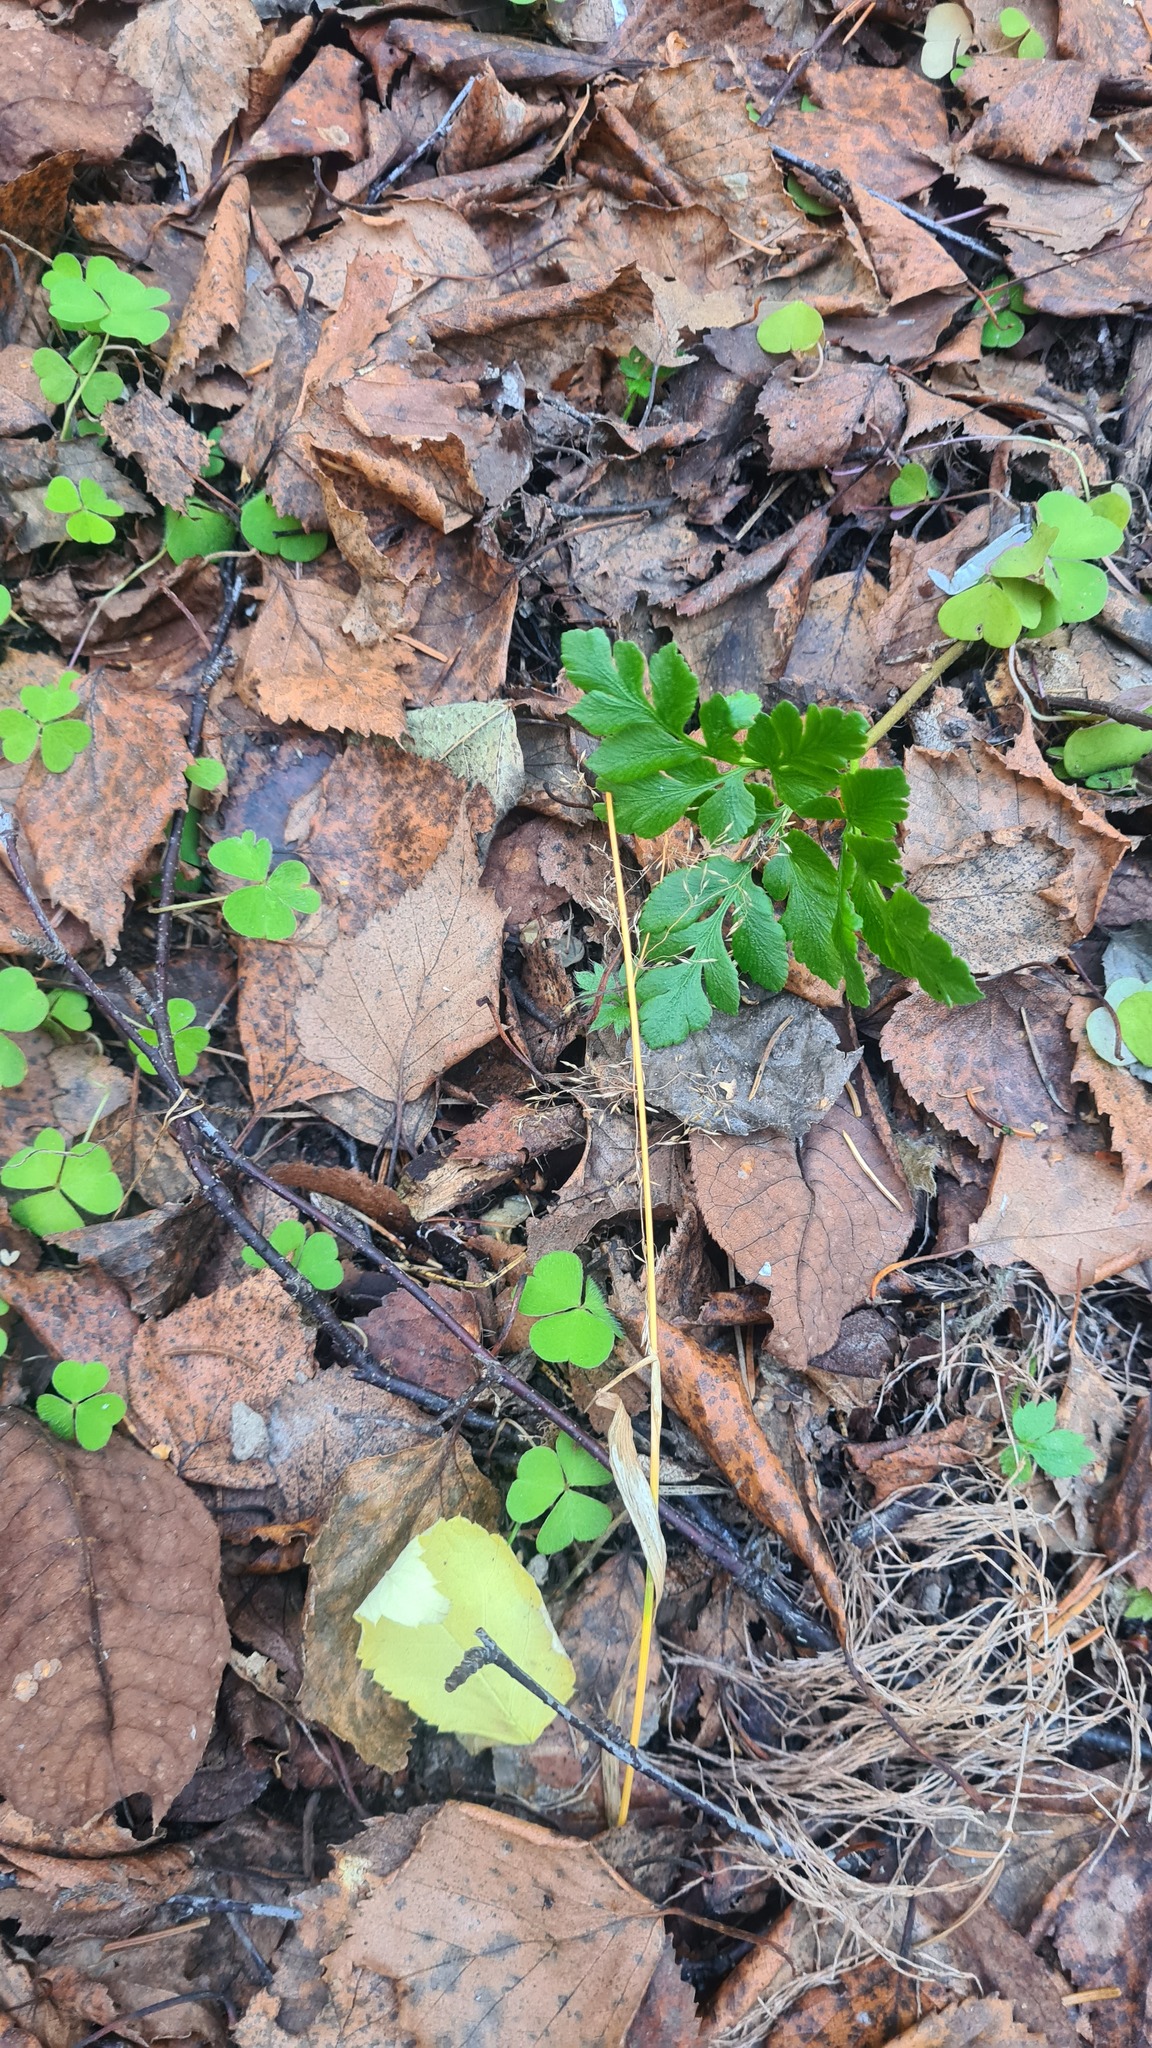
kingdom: Plantae
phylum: Tracheophyta
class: Polypodiopsida
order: Ophioglossales
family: Ophioglossaceae
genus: Sceptridium
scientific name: Sceptridium multifidum
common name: Leathery grape fern
